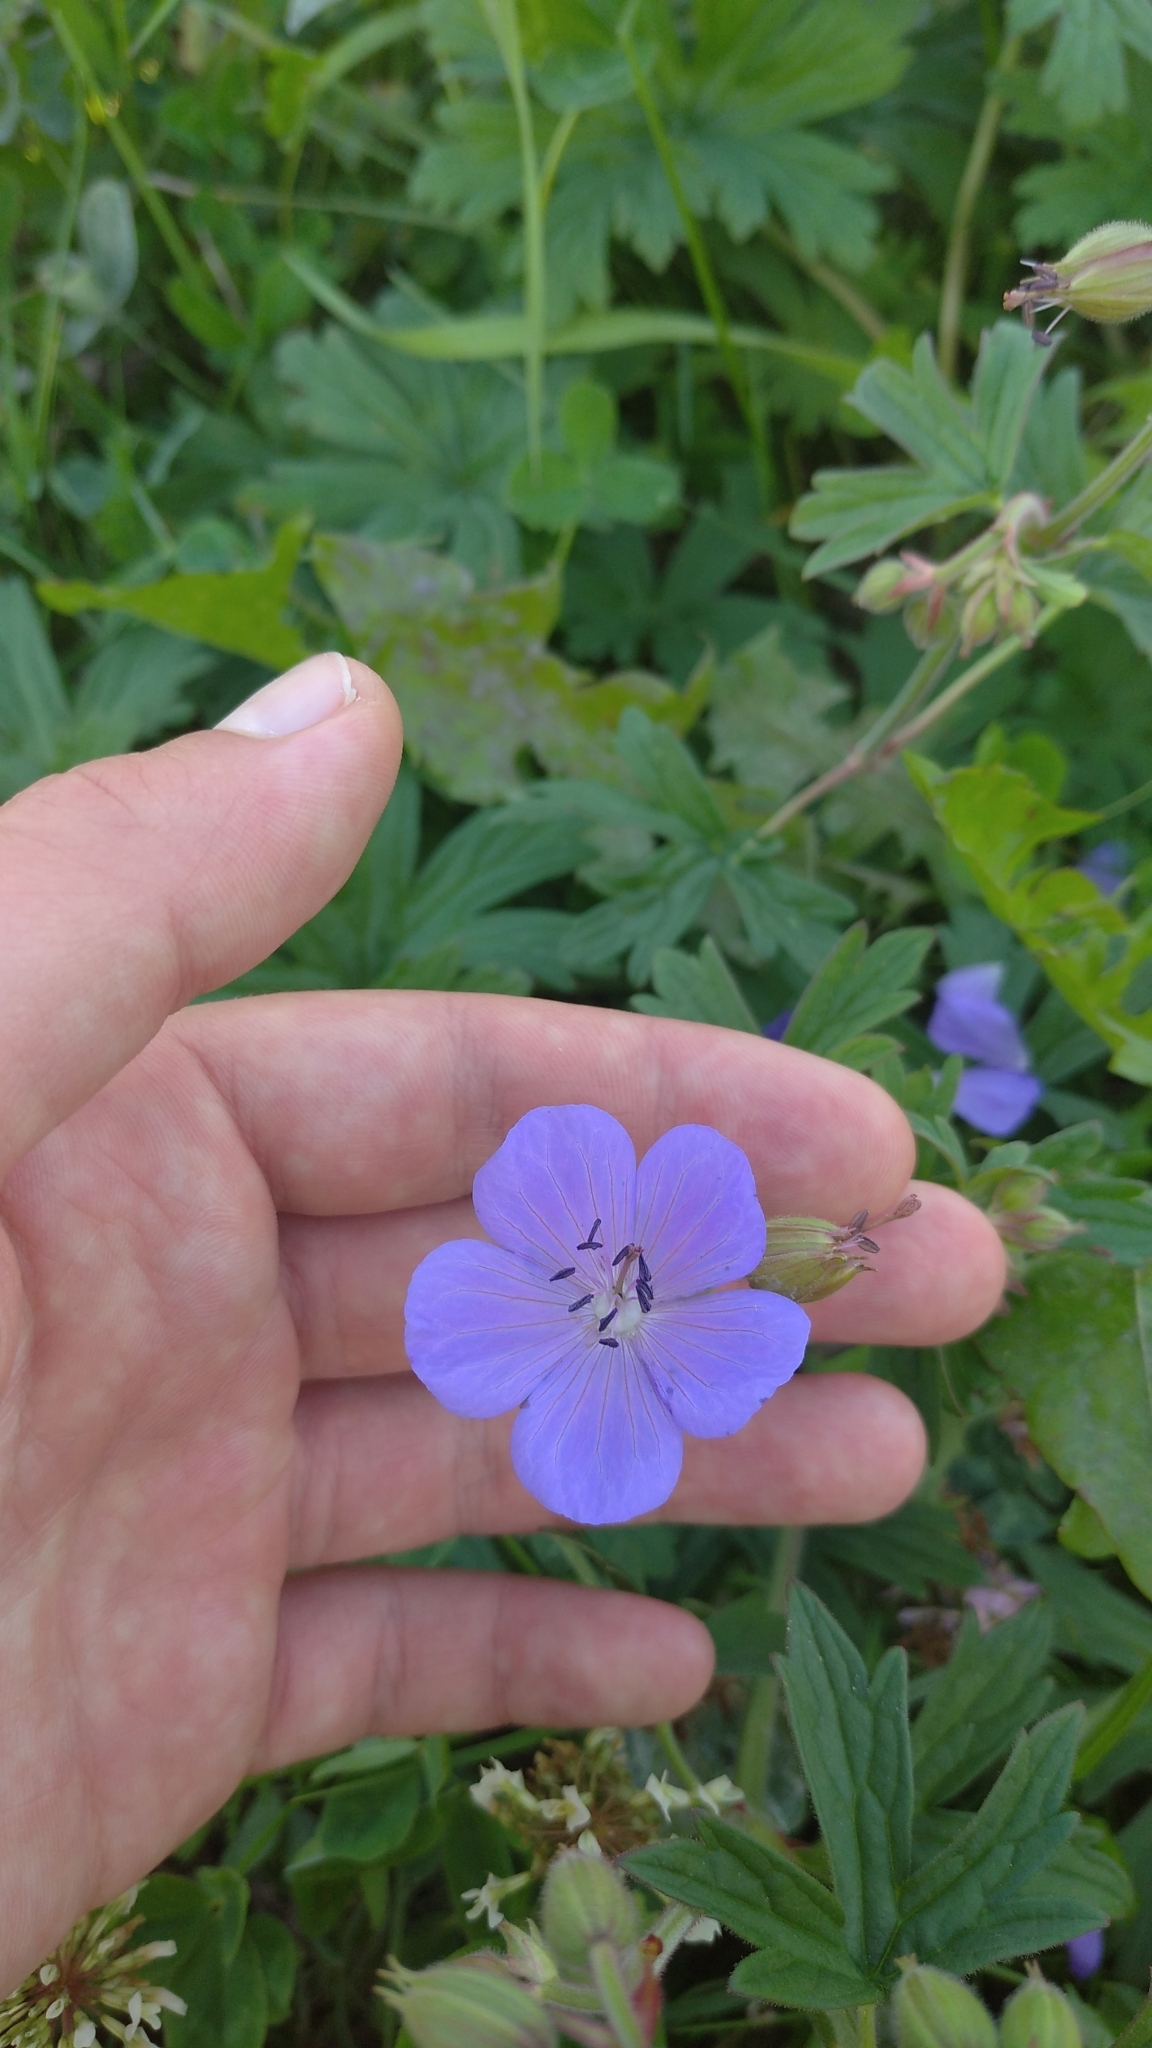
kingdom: Plantae
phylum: Tracheophyta
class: Magnoliopsida
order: Geraniales
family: Geraniaceae
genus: Geranium
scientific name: Geranium pratense
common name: Meadow crane's-bill
